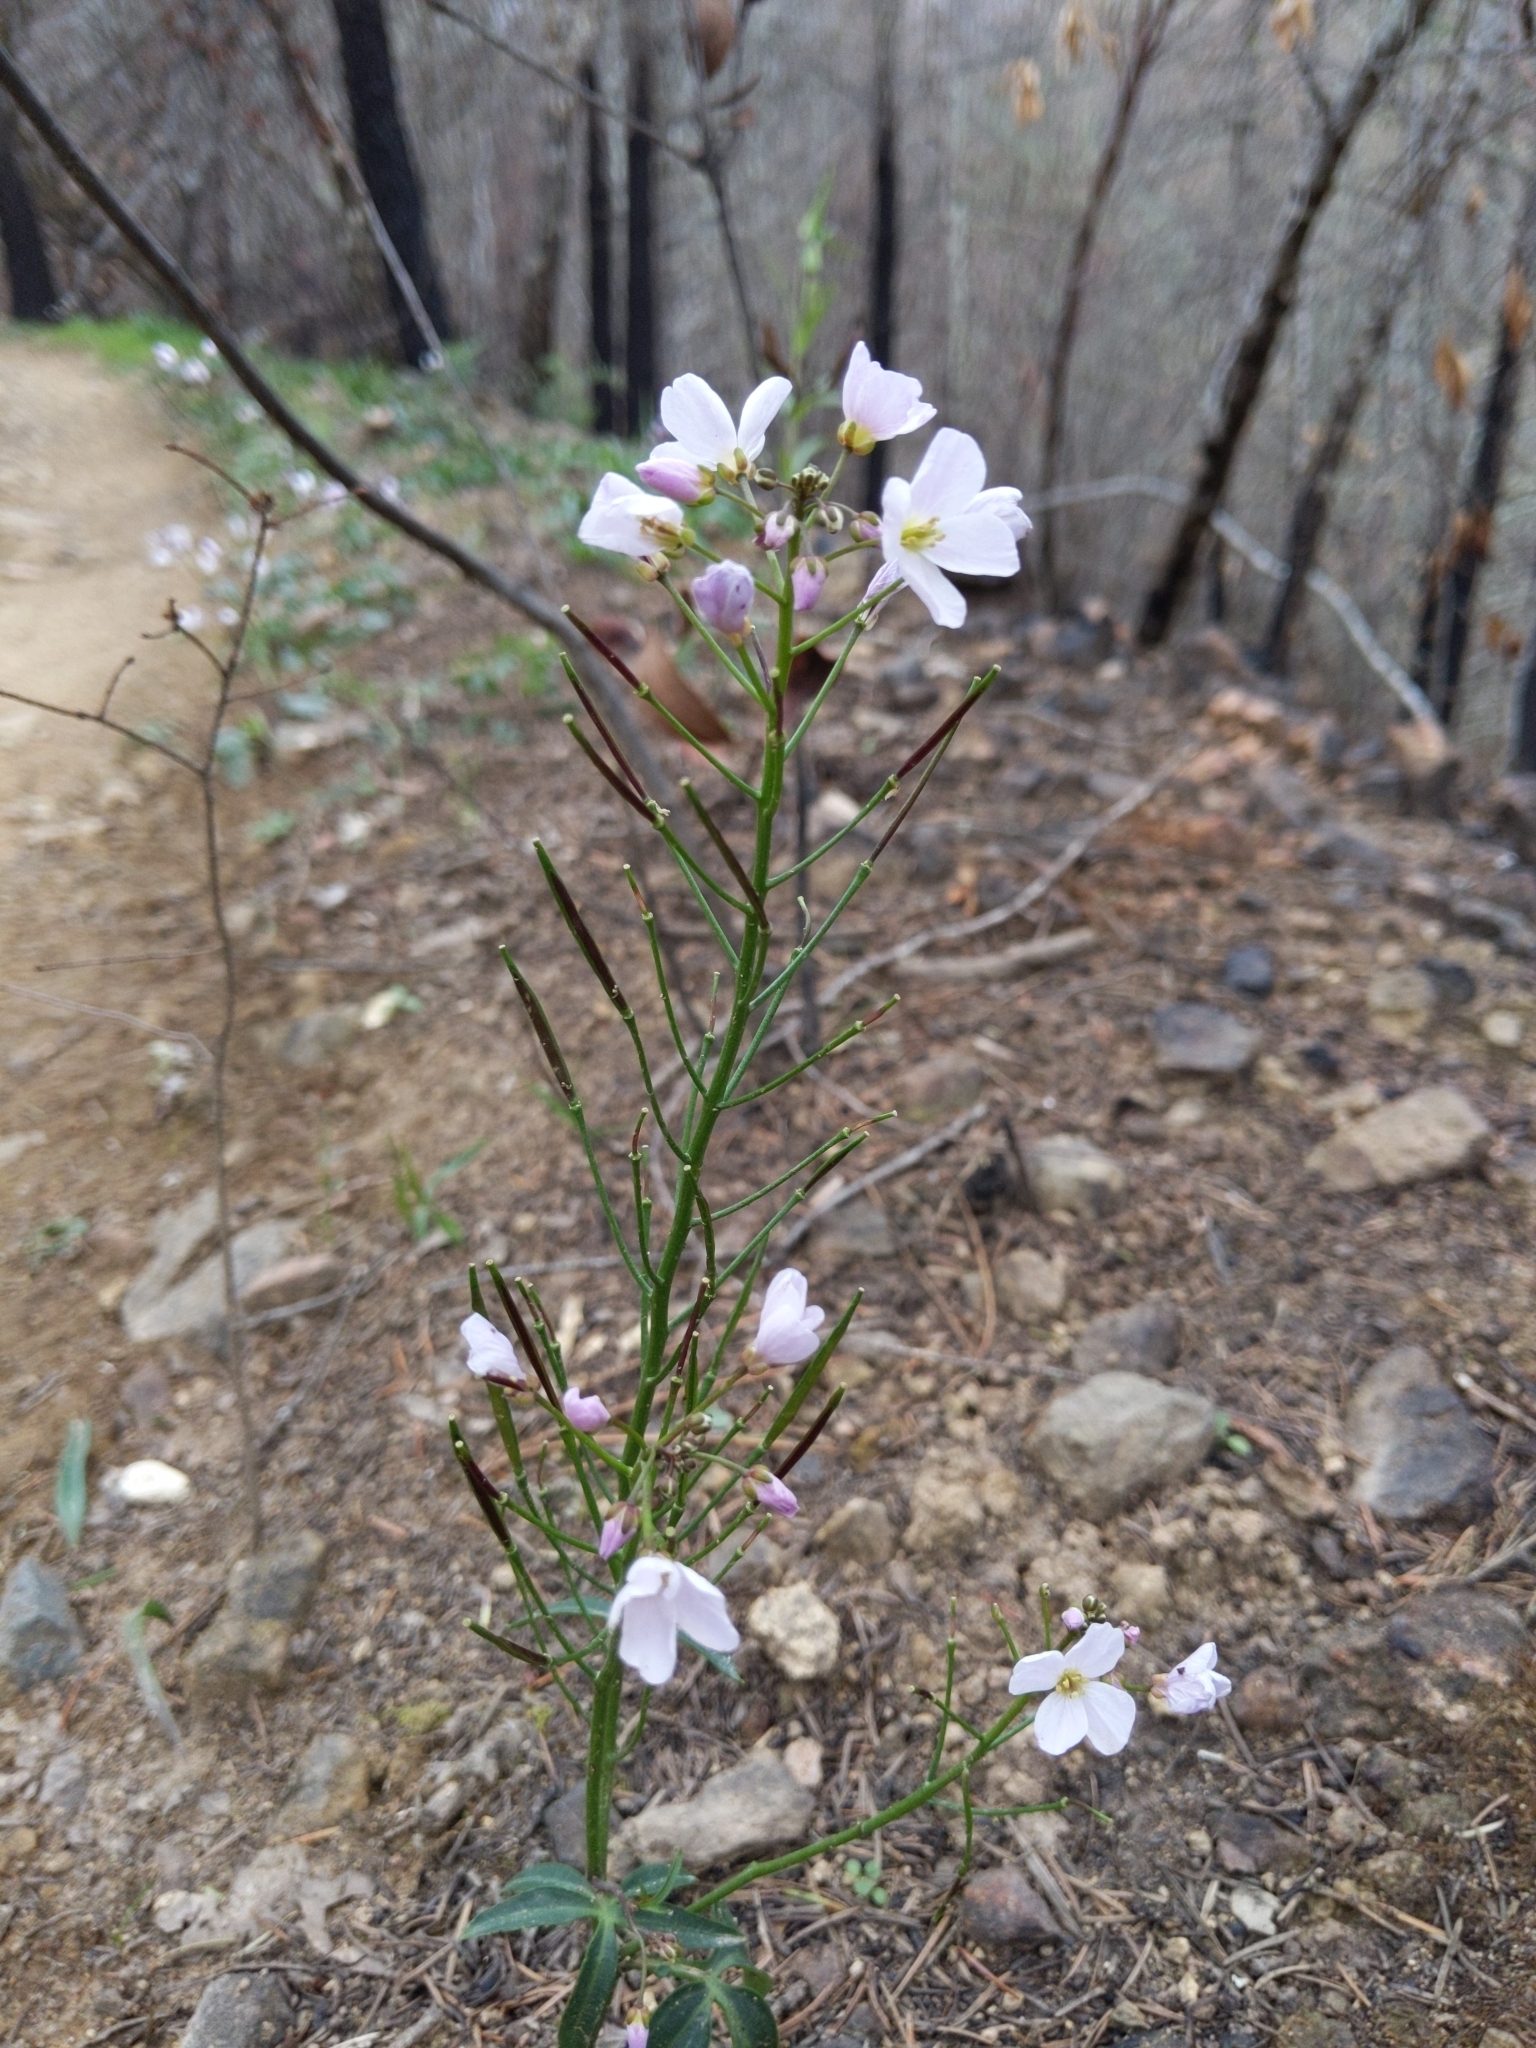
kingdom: Plantae
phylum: Tracheophyta
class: Magnoliopsida
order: Brassicales
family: Brassicaceae
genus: Cardamine
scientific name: Cardamine californica
